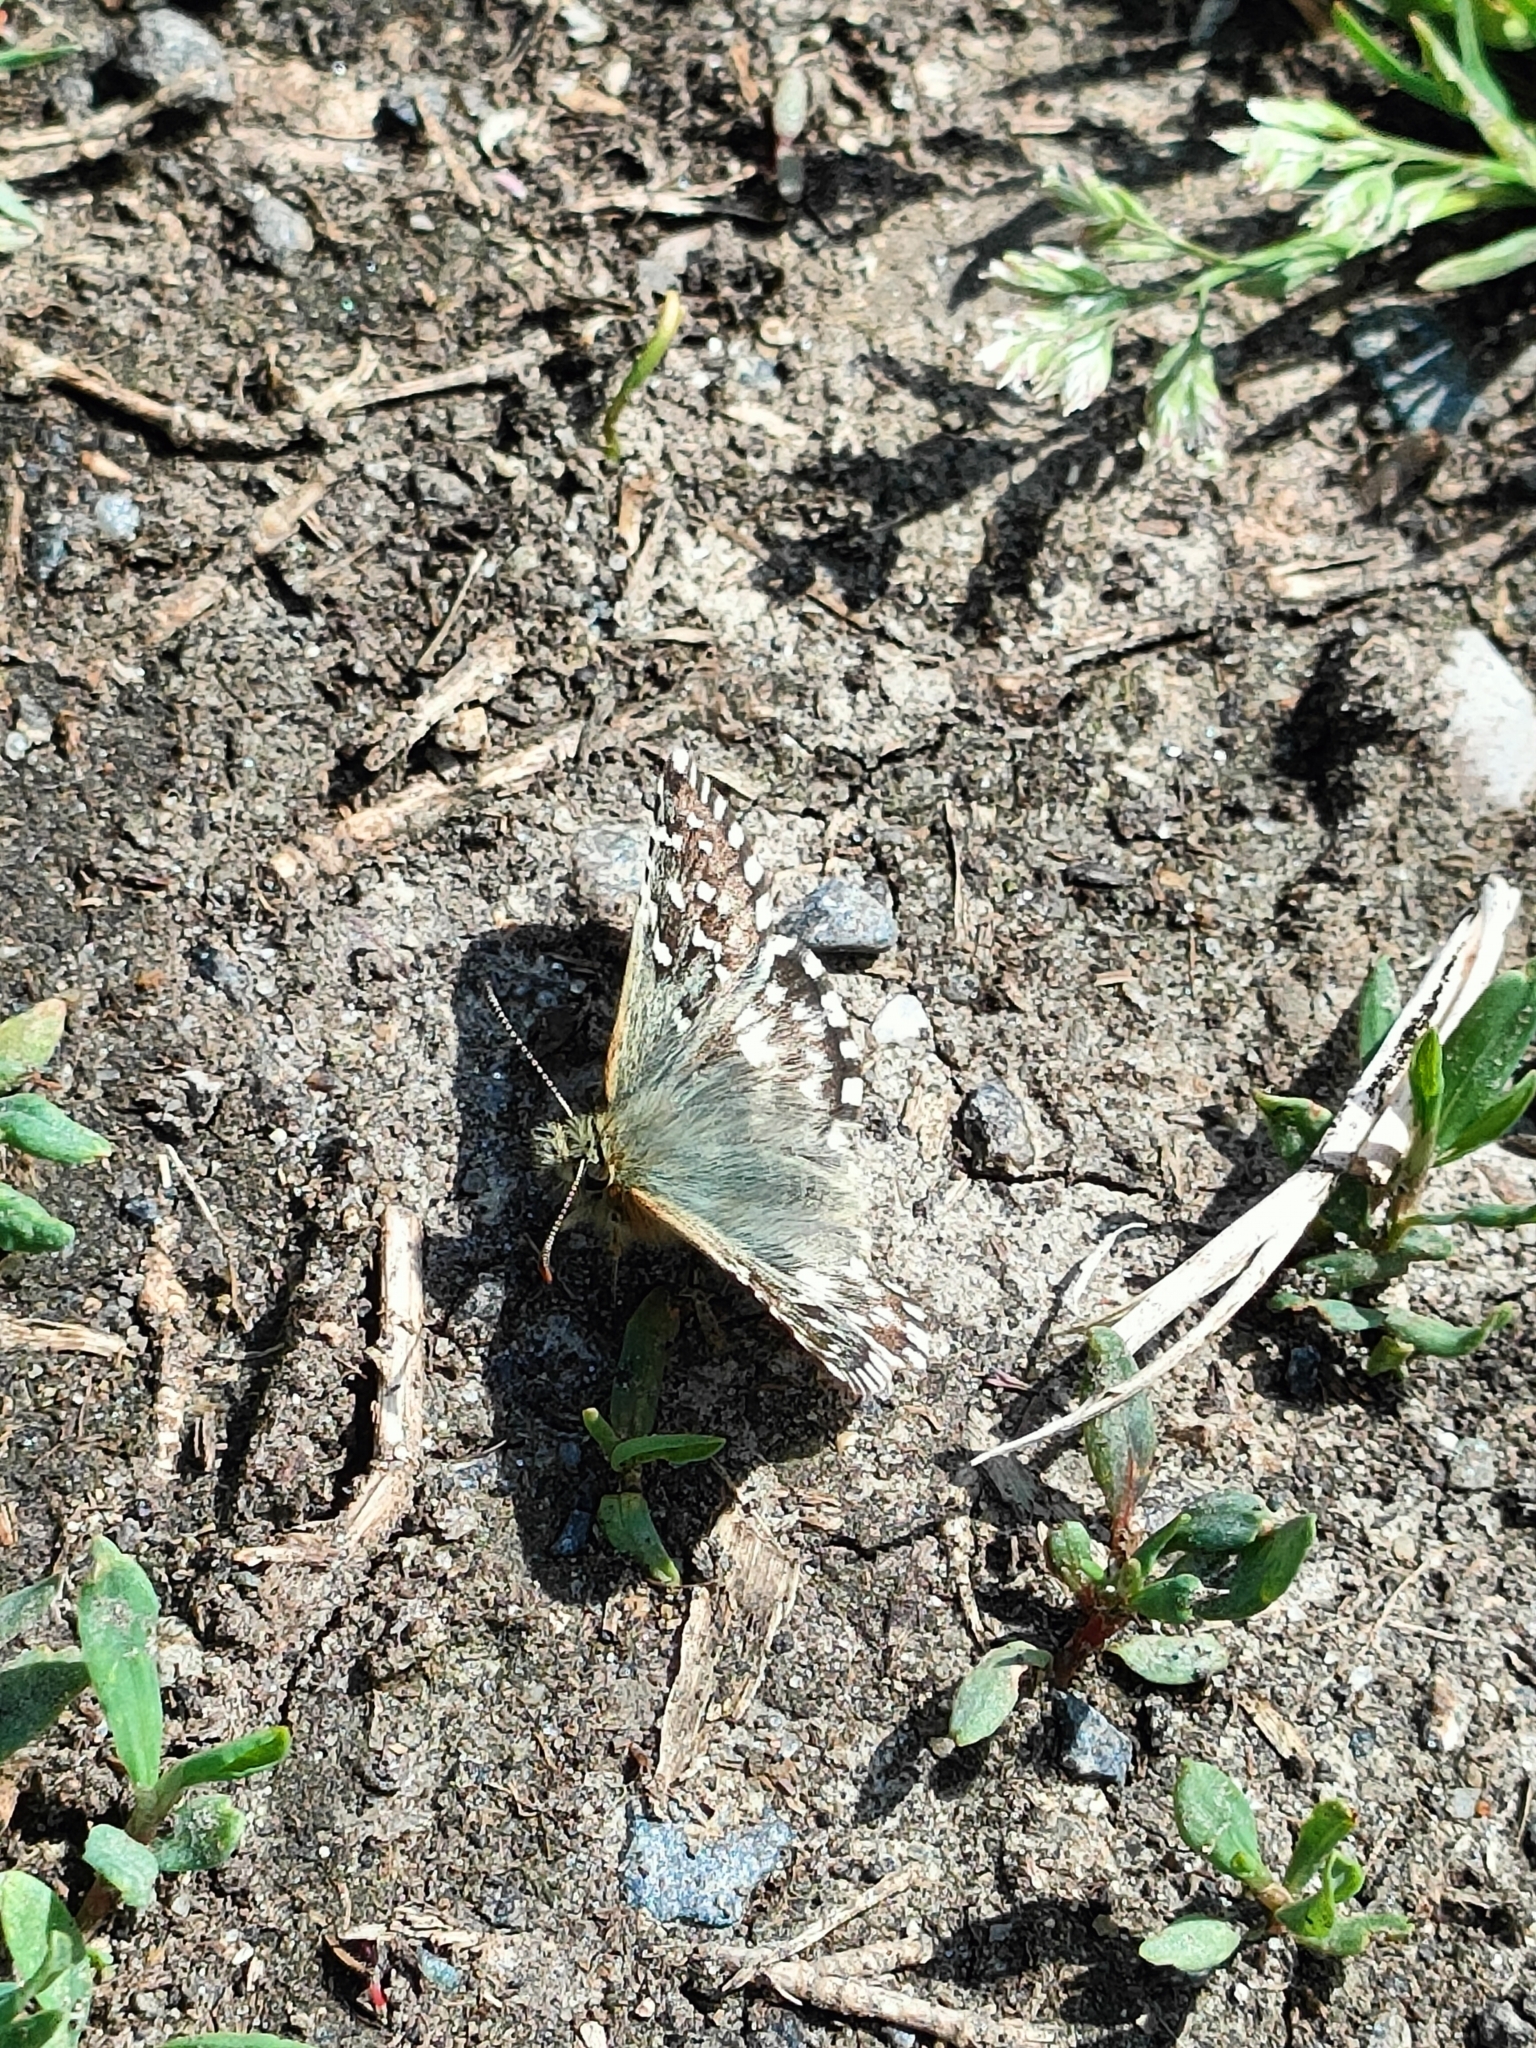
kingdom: Animalia
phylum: Arthropoda
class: Insecta
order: Lepidoptera
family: Hesperiidae
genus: Pyrgus
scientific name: Pyrgus malvoides
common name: Southern grizzled skipper
